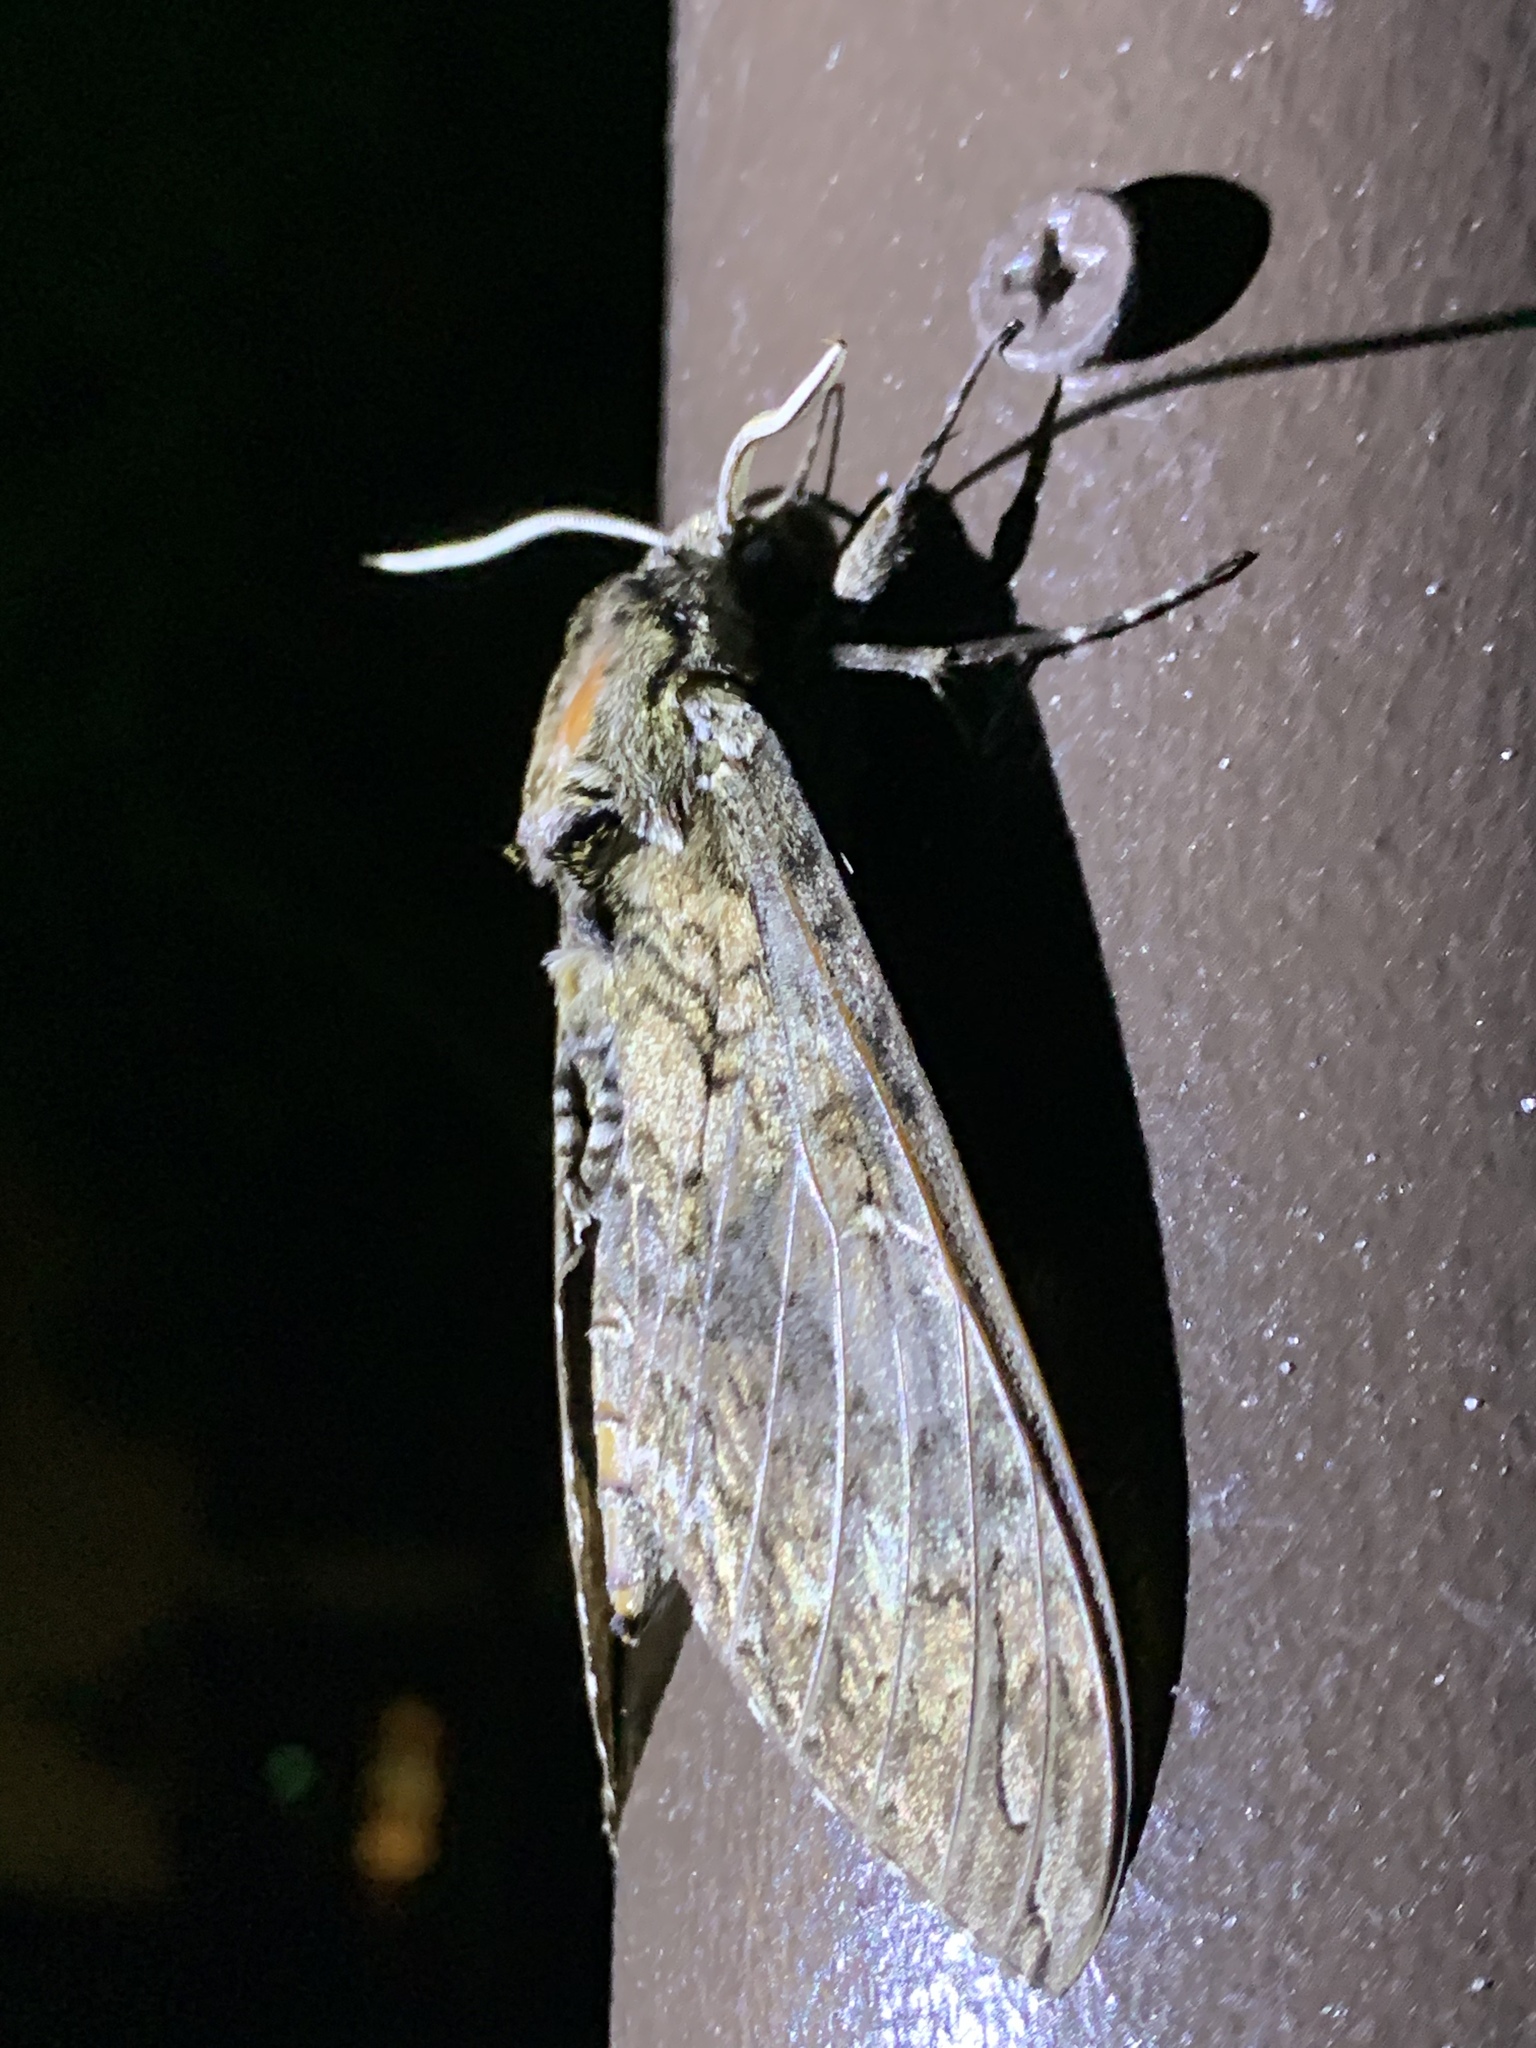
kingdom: Animalia
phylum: Arthropoda
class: Insecta
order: Lepidoptera
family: Sphingidae
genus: Manduca
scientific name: Manduca sexta
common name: Carolina sphinx
